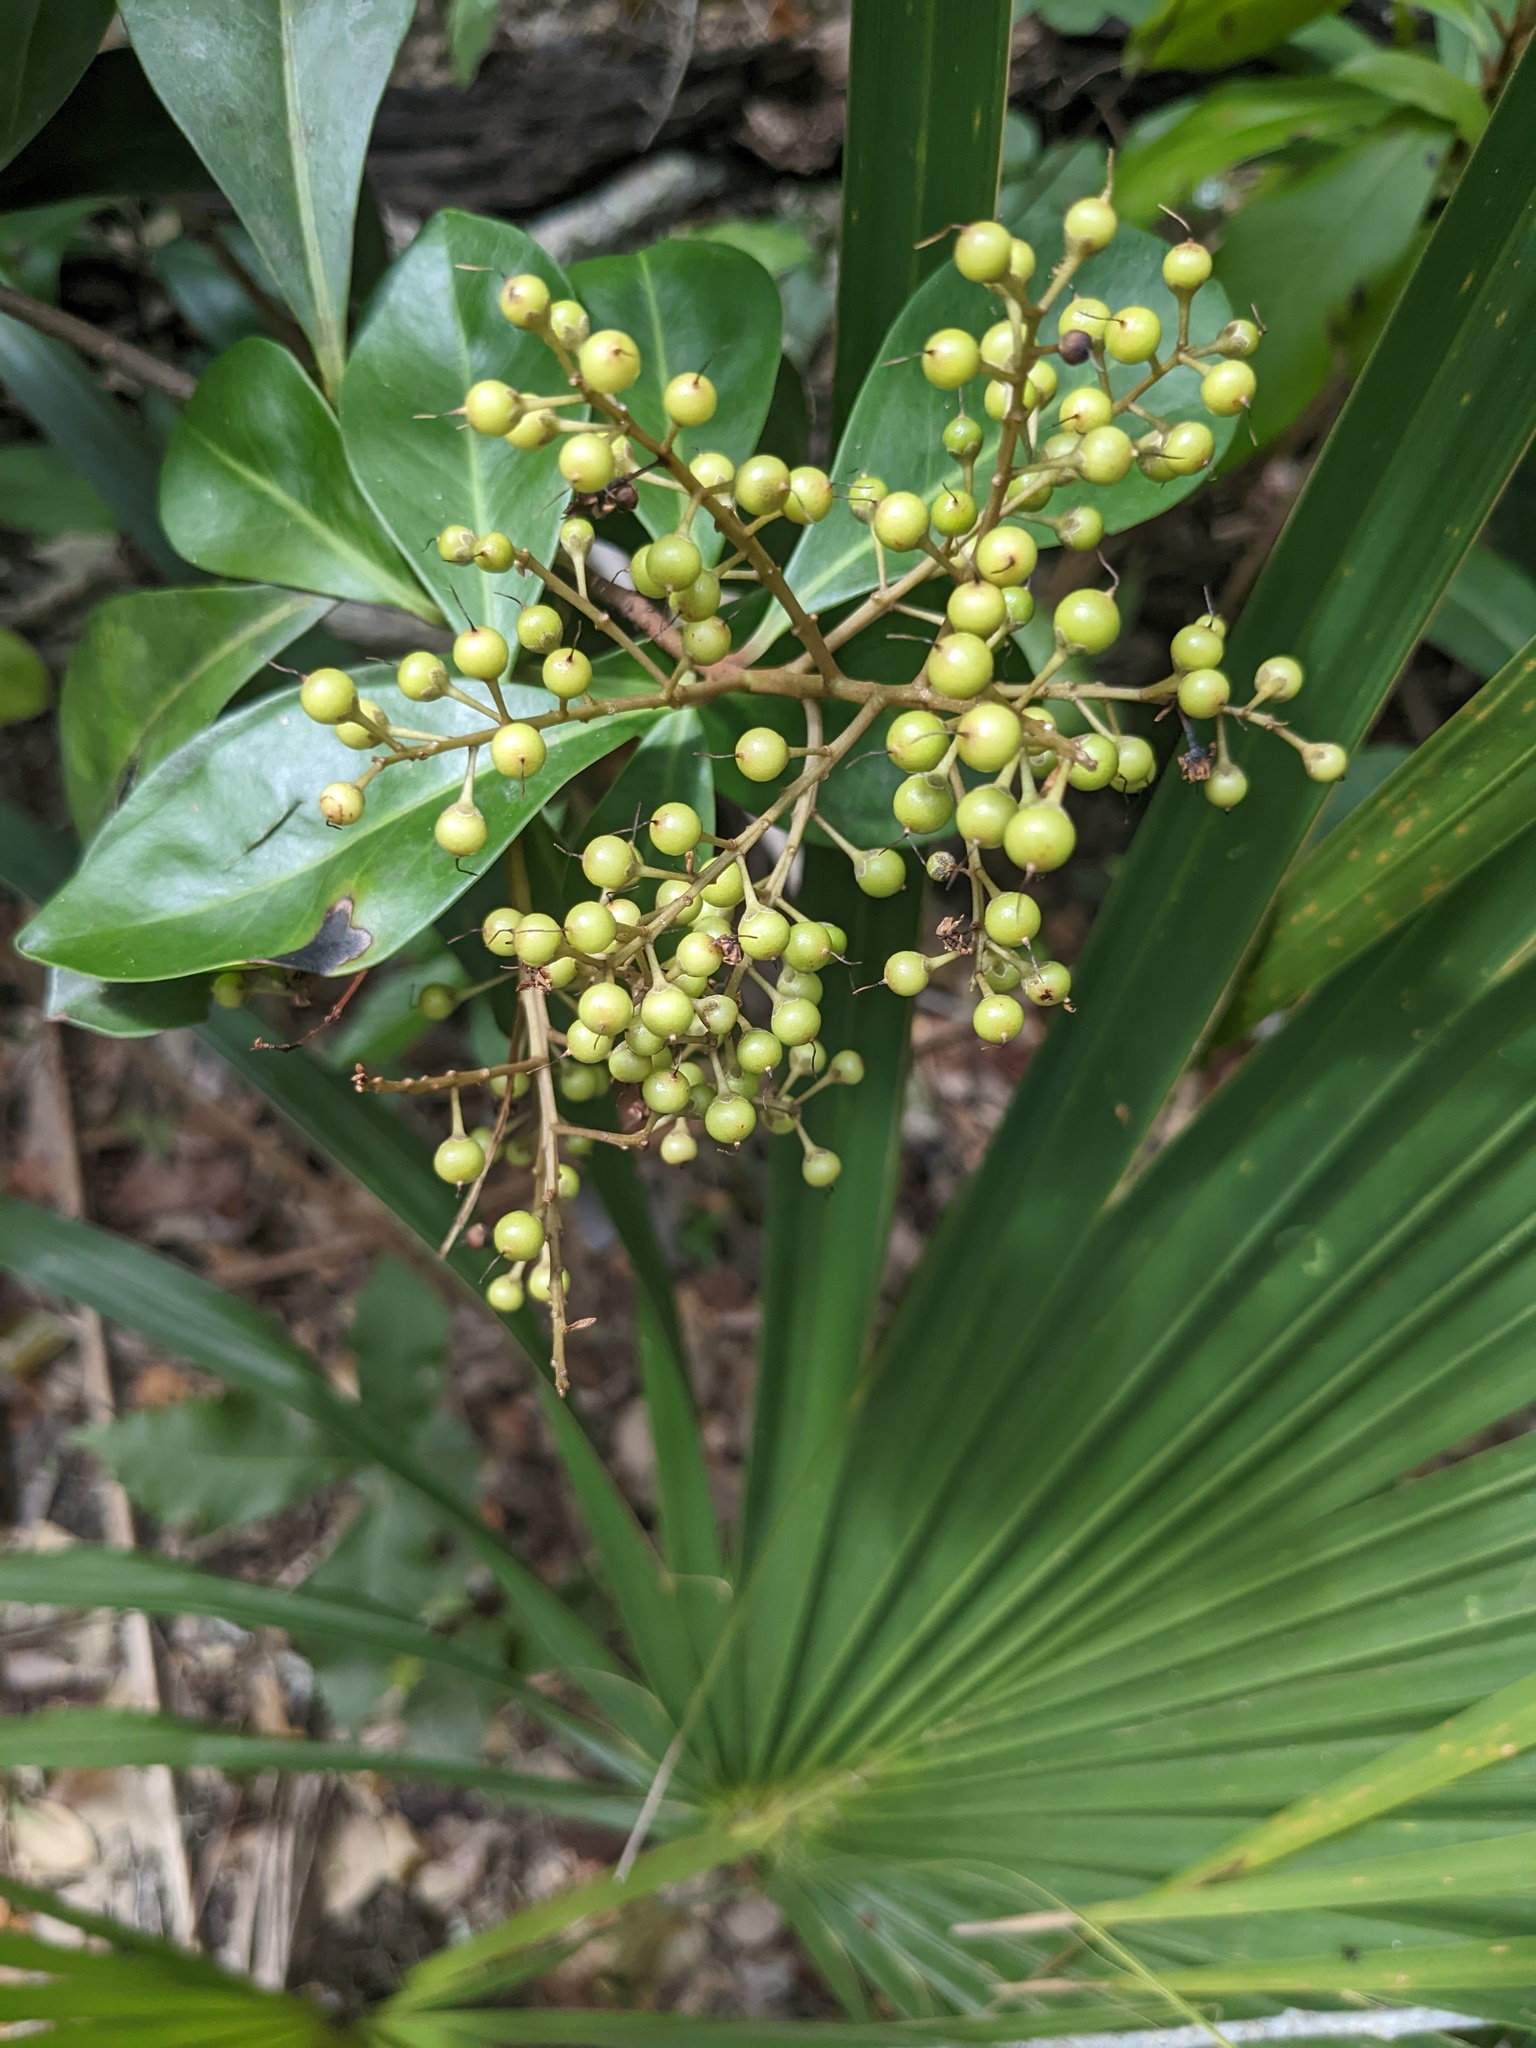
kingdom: Plantae
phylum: Tracheophyta
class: Magnoliopsida
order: Ericales
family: Primulaceae
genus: Ardisia
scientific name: Ardisia escallonioides
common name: Island marlberry
